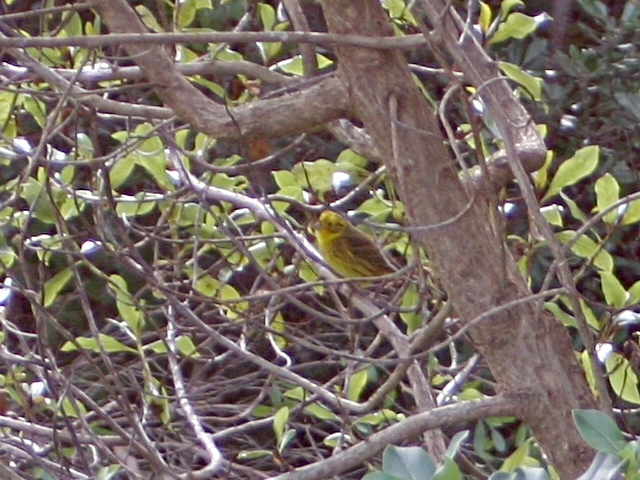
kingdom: Animalia
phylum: Chordata
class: Aves
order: Passeriformes
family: Emberizidae
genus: Emberiza
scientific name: Emberiza citrinella
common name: Yellowhammer
